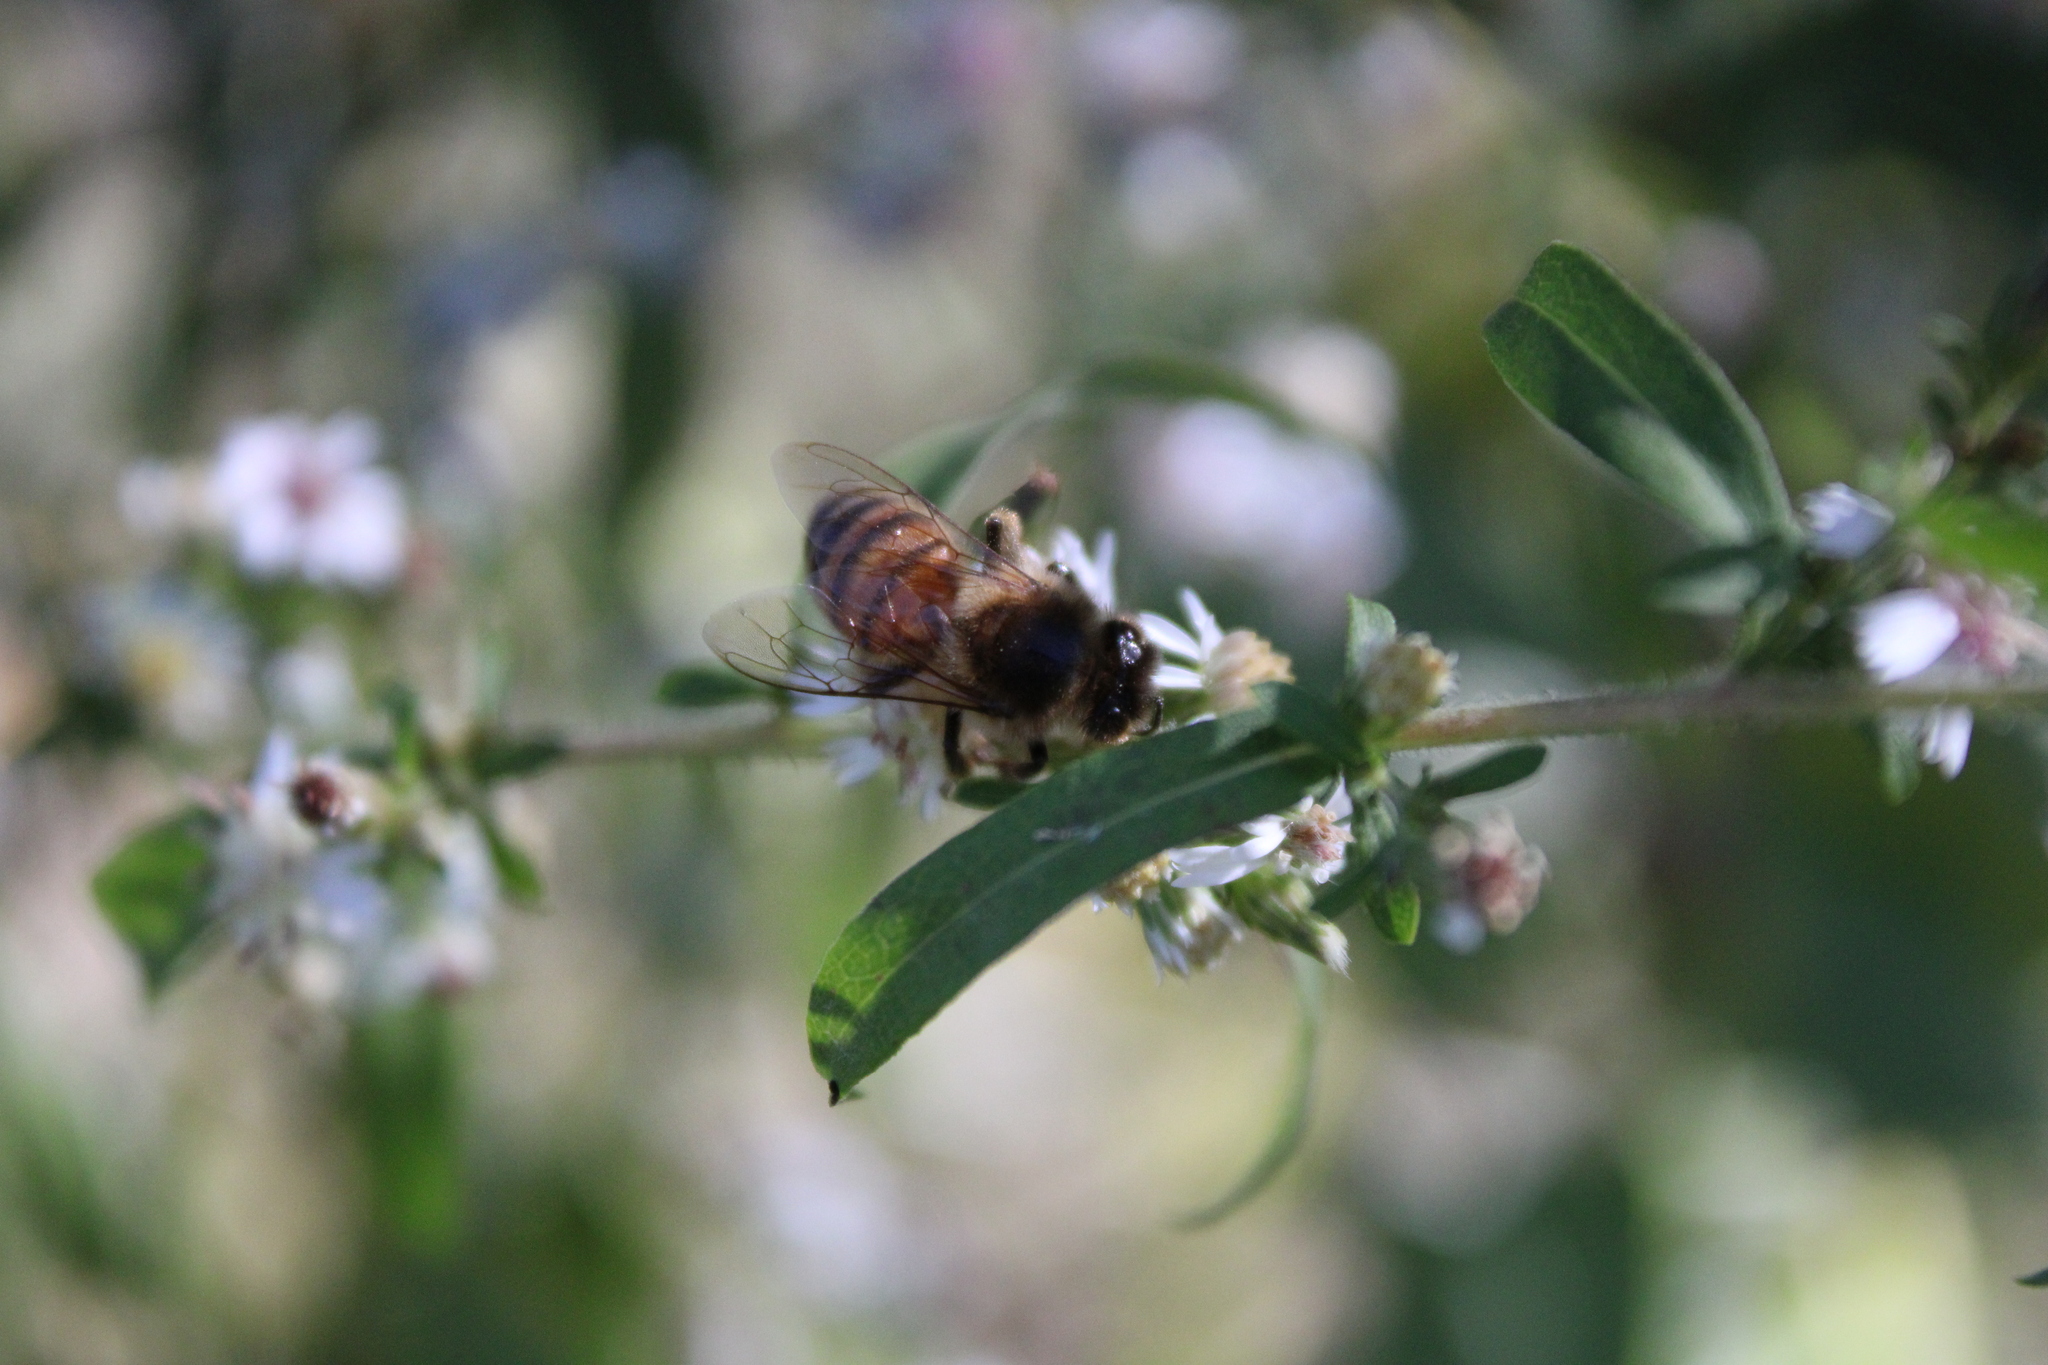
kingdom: Animalia
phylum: Arthropoda
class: Insecta
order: Hymenoptera
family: Apidae
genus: Apis
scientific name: Apis mellifera
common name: Honey bee
